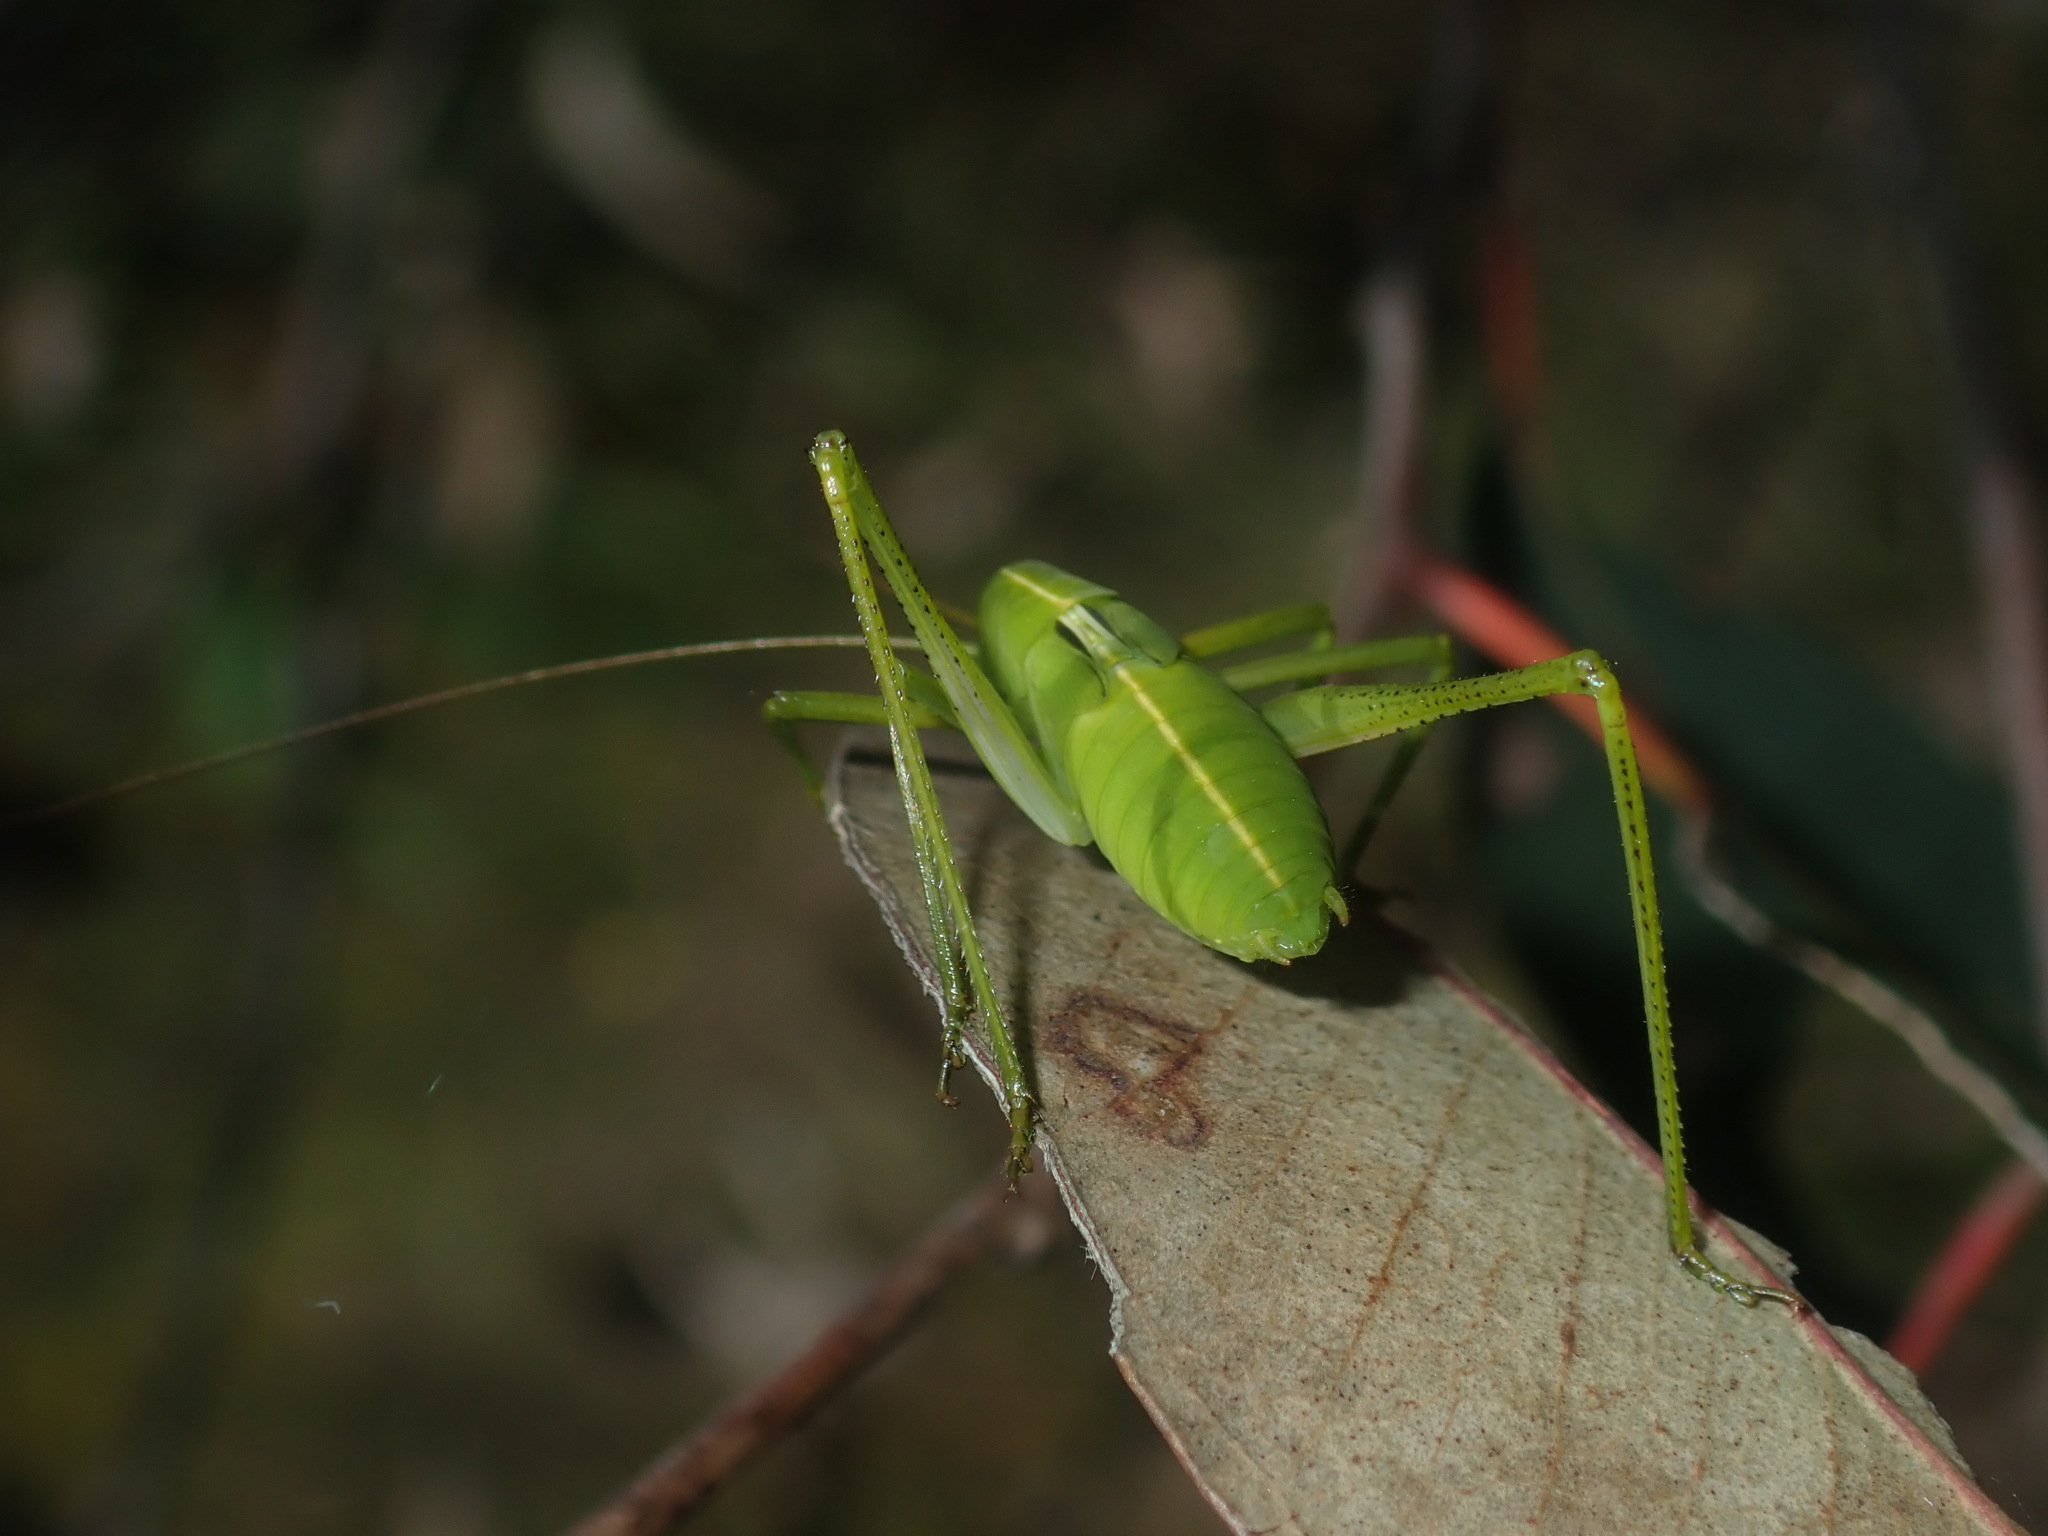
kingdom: Animalia
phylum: Arthropoda
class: Insecta
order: Orthoptera
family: Tettigoniidae
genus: Elephantodeta
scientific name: Elephantodeta nobilis
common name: Noble hump-backed kattydid
